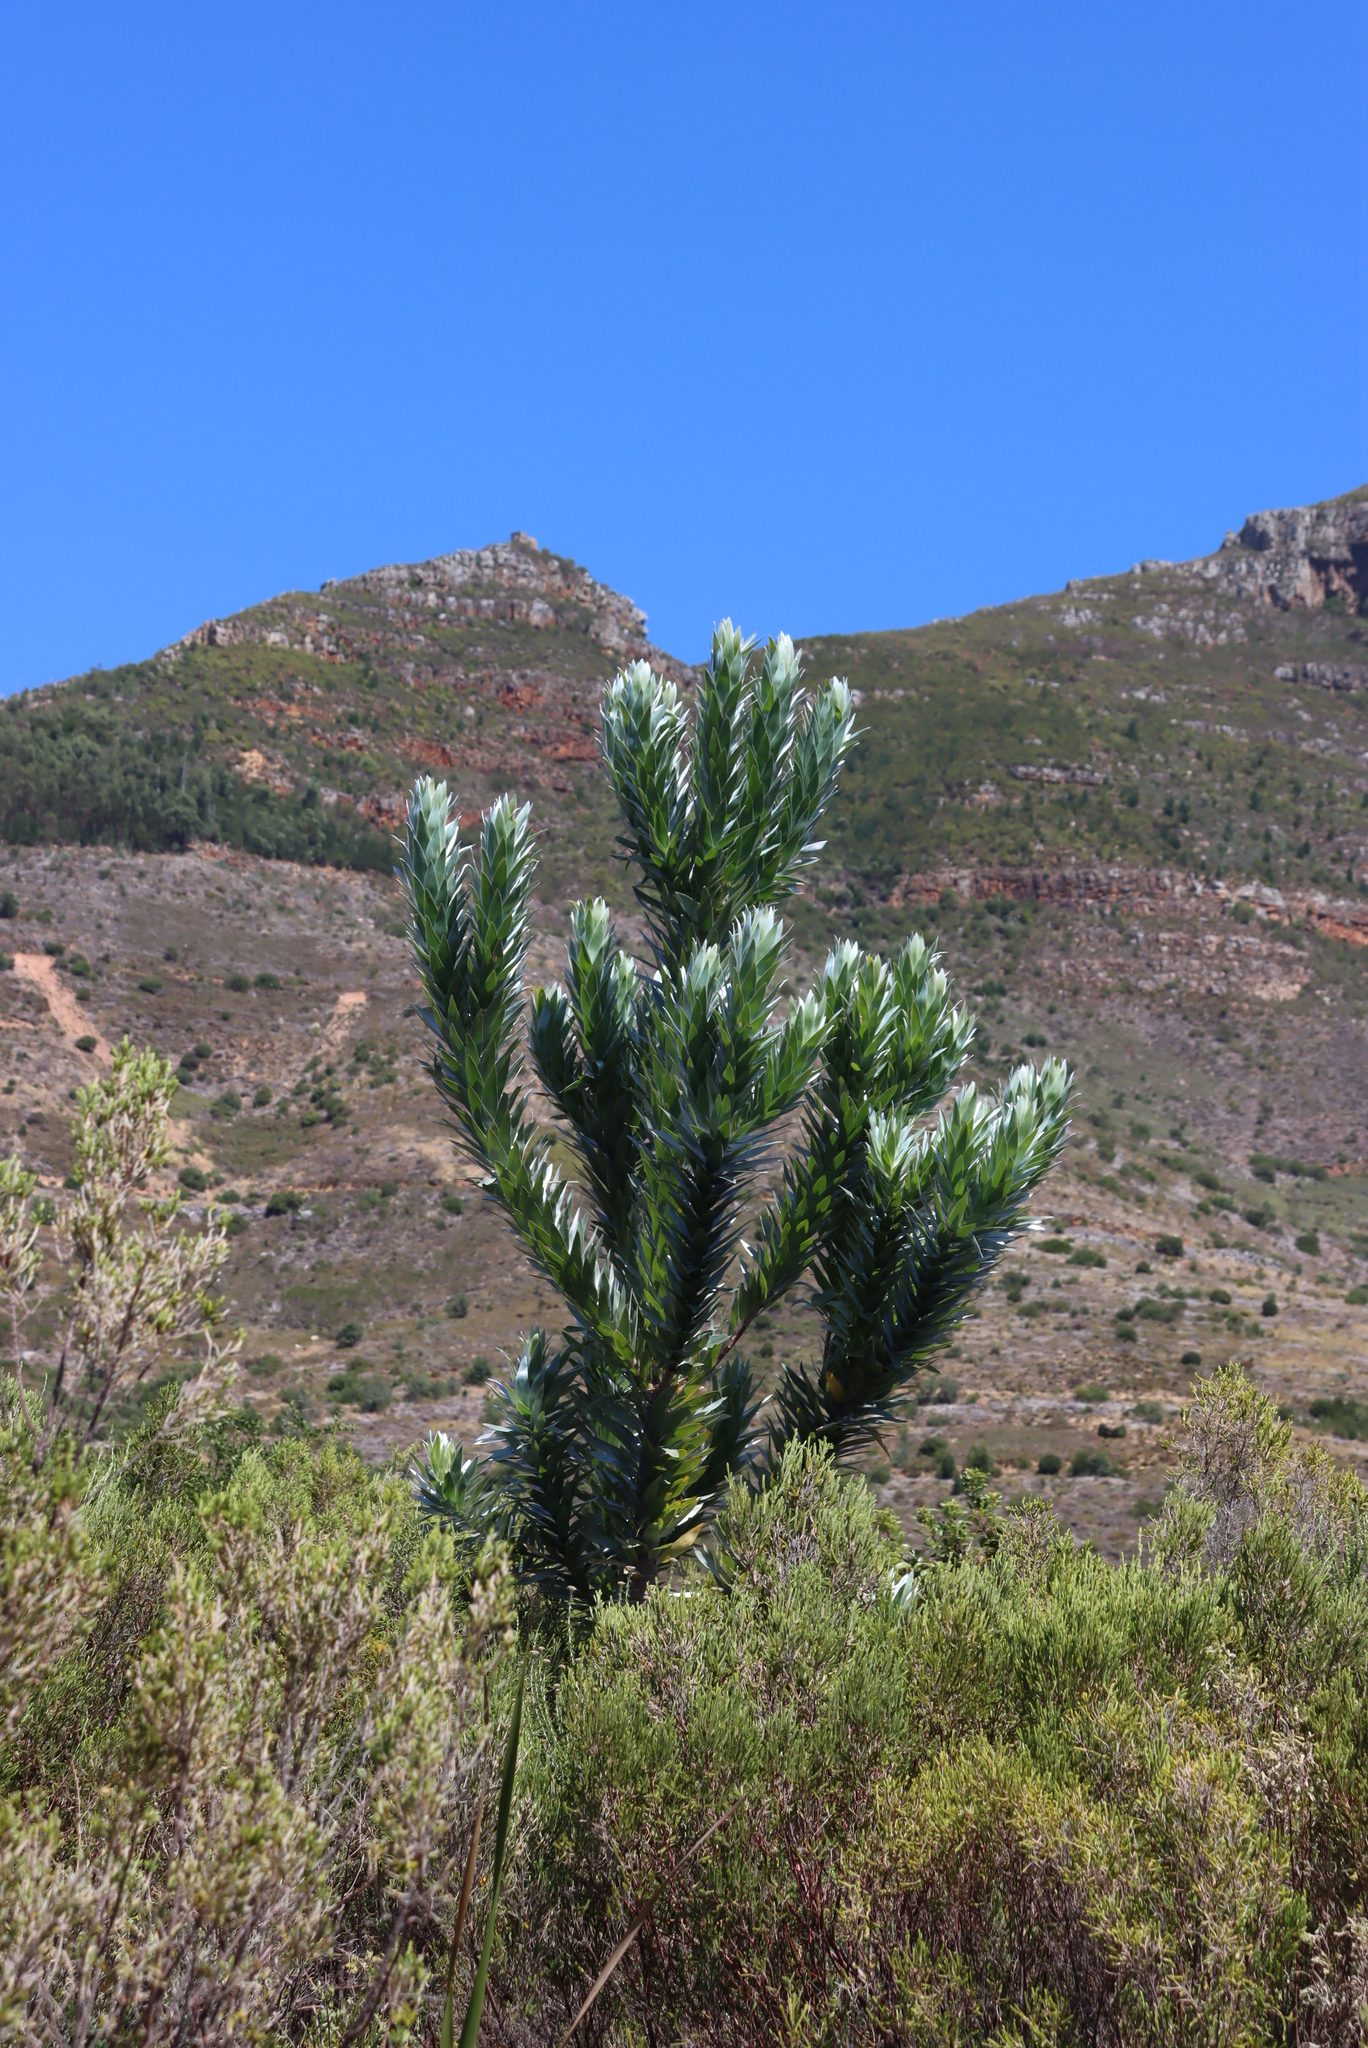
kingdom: Plantae
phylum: Tracheophyta
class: Magnoliopsida
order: Proteales
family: Proteaceae
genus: Leucadendron
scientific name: Leucadendron argenteum
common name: Cape silver tree
